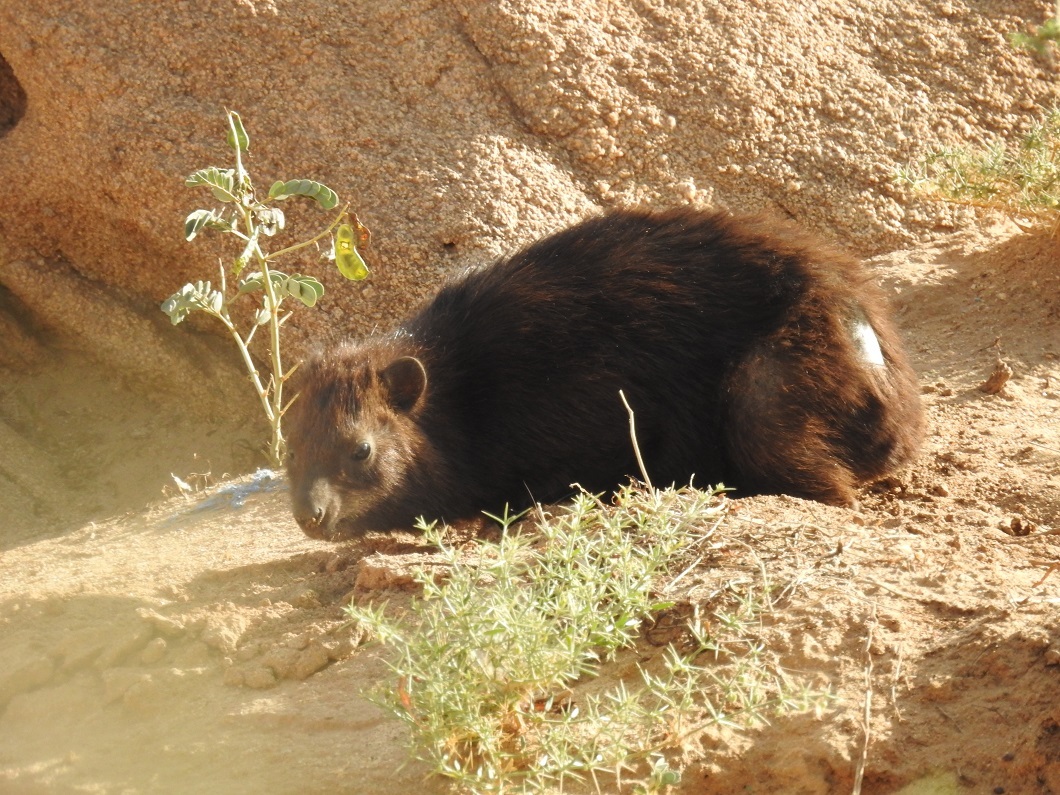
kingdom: Animalia
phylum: Chordata
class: Mammalia
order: Hyracoidea
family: Procaviidae
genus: Procavia
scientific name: Procavia capensis
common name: Rock hyrax
